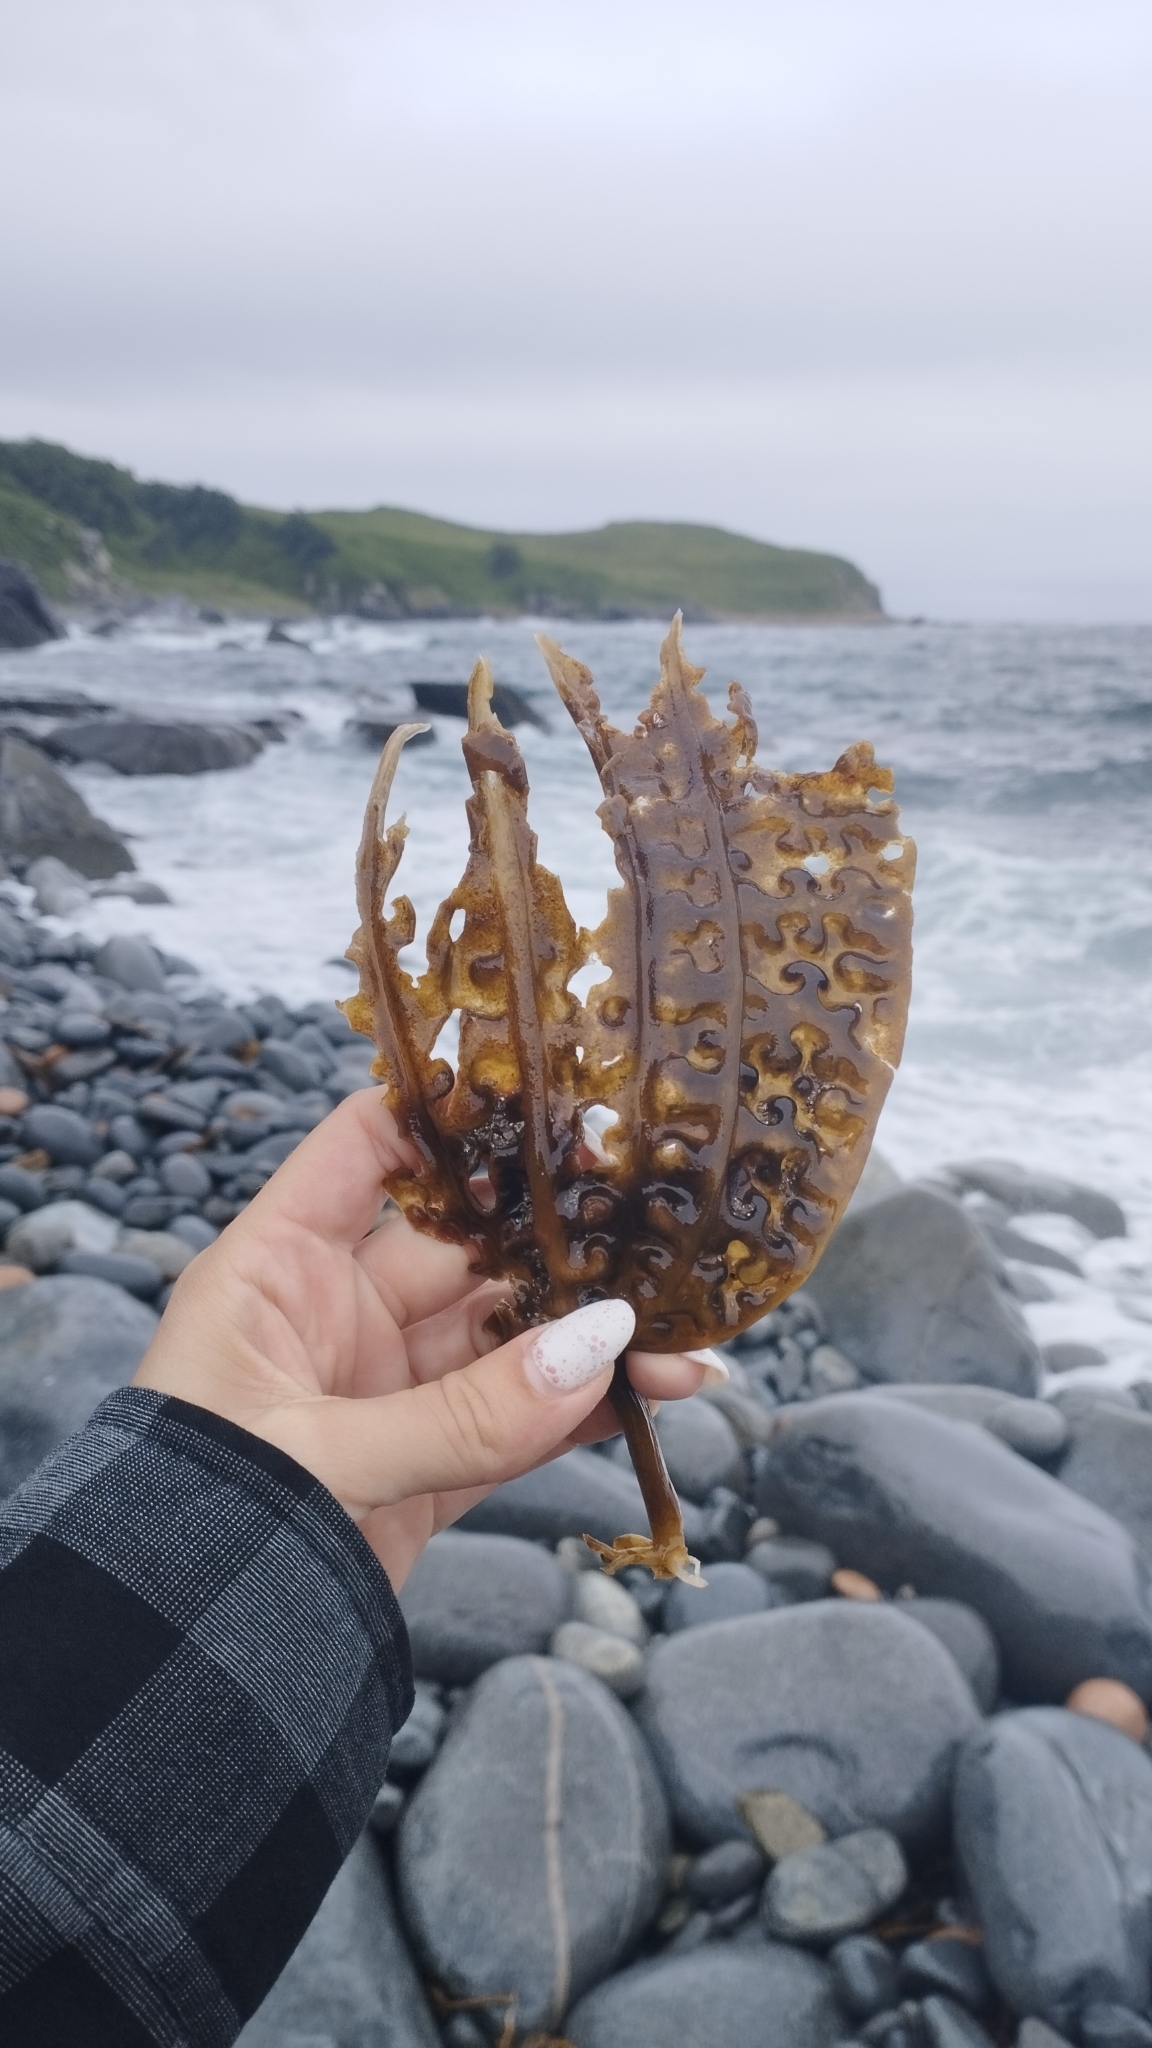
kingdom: Chromista
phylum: Ochrophyta
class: Phaeophyceae
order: Laminariales
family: Costariaceae
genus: Costaria
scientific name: Costaria costata
